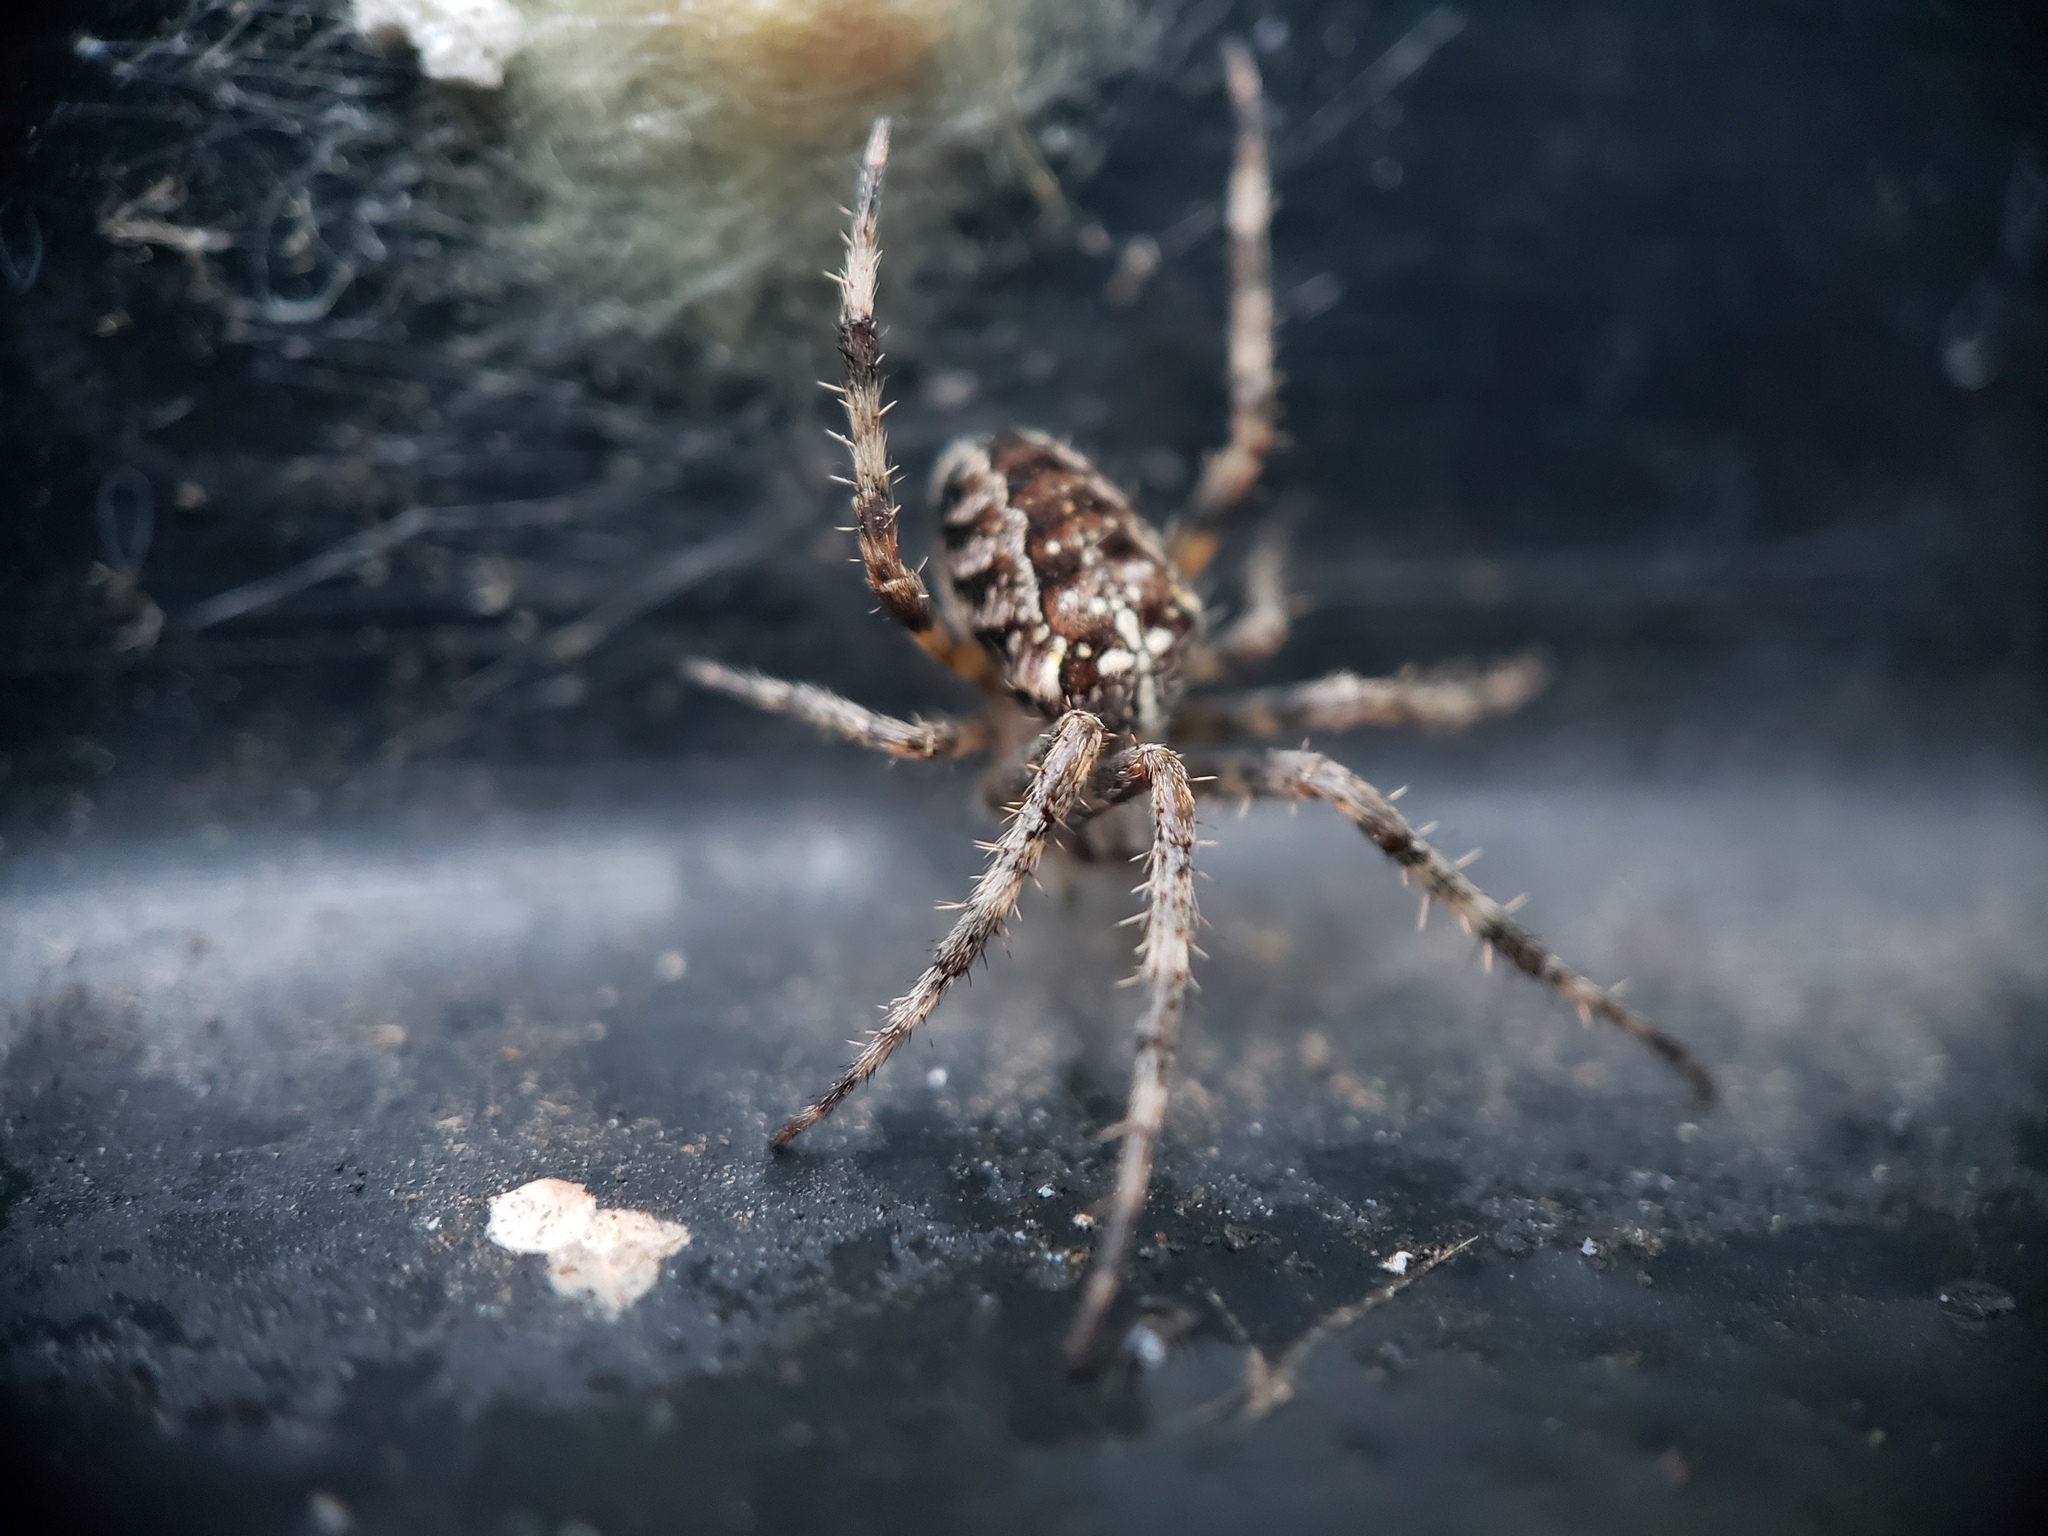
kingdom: Animalia
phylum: Arthropoda
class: Arachnida
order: Araneae
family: Araneidae
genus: Araneus
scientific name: Araneus diadematus
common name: Cross orbweaver
